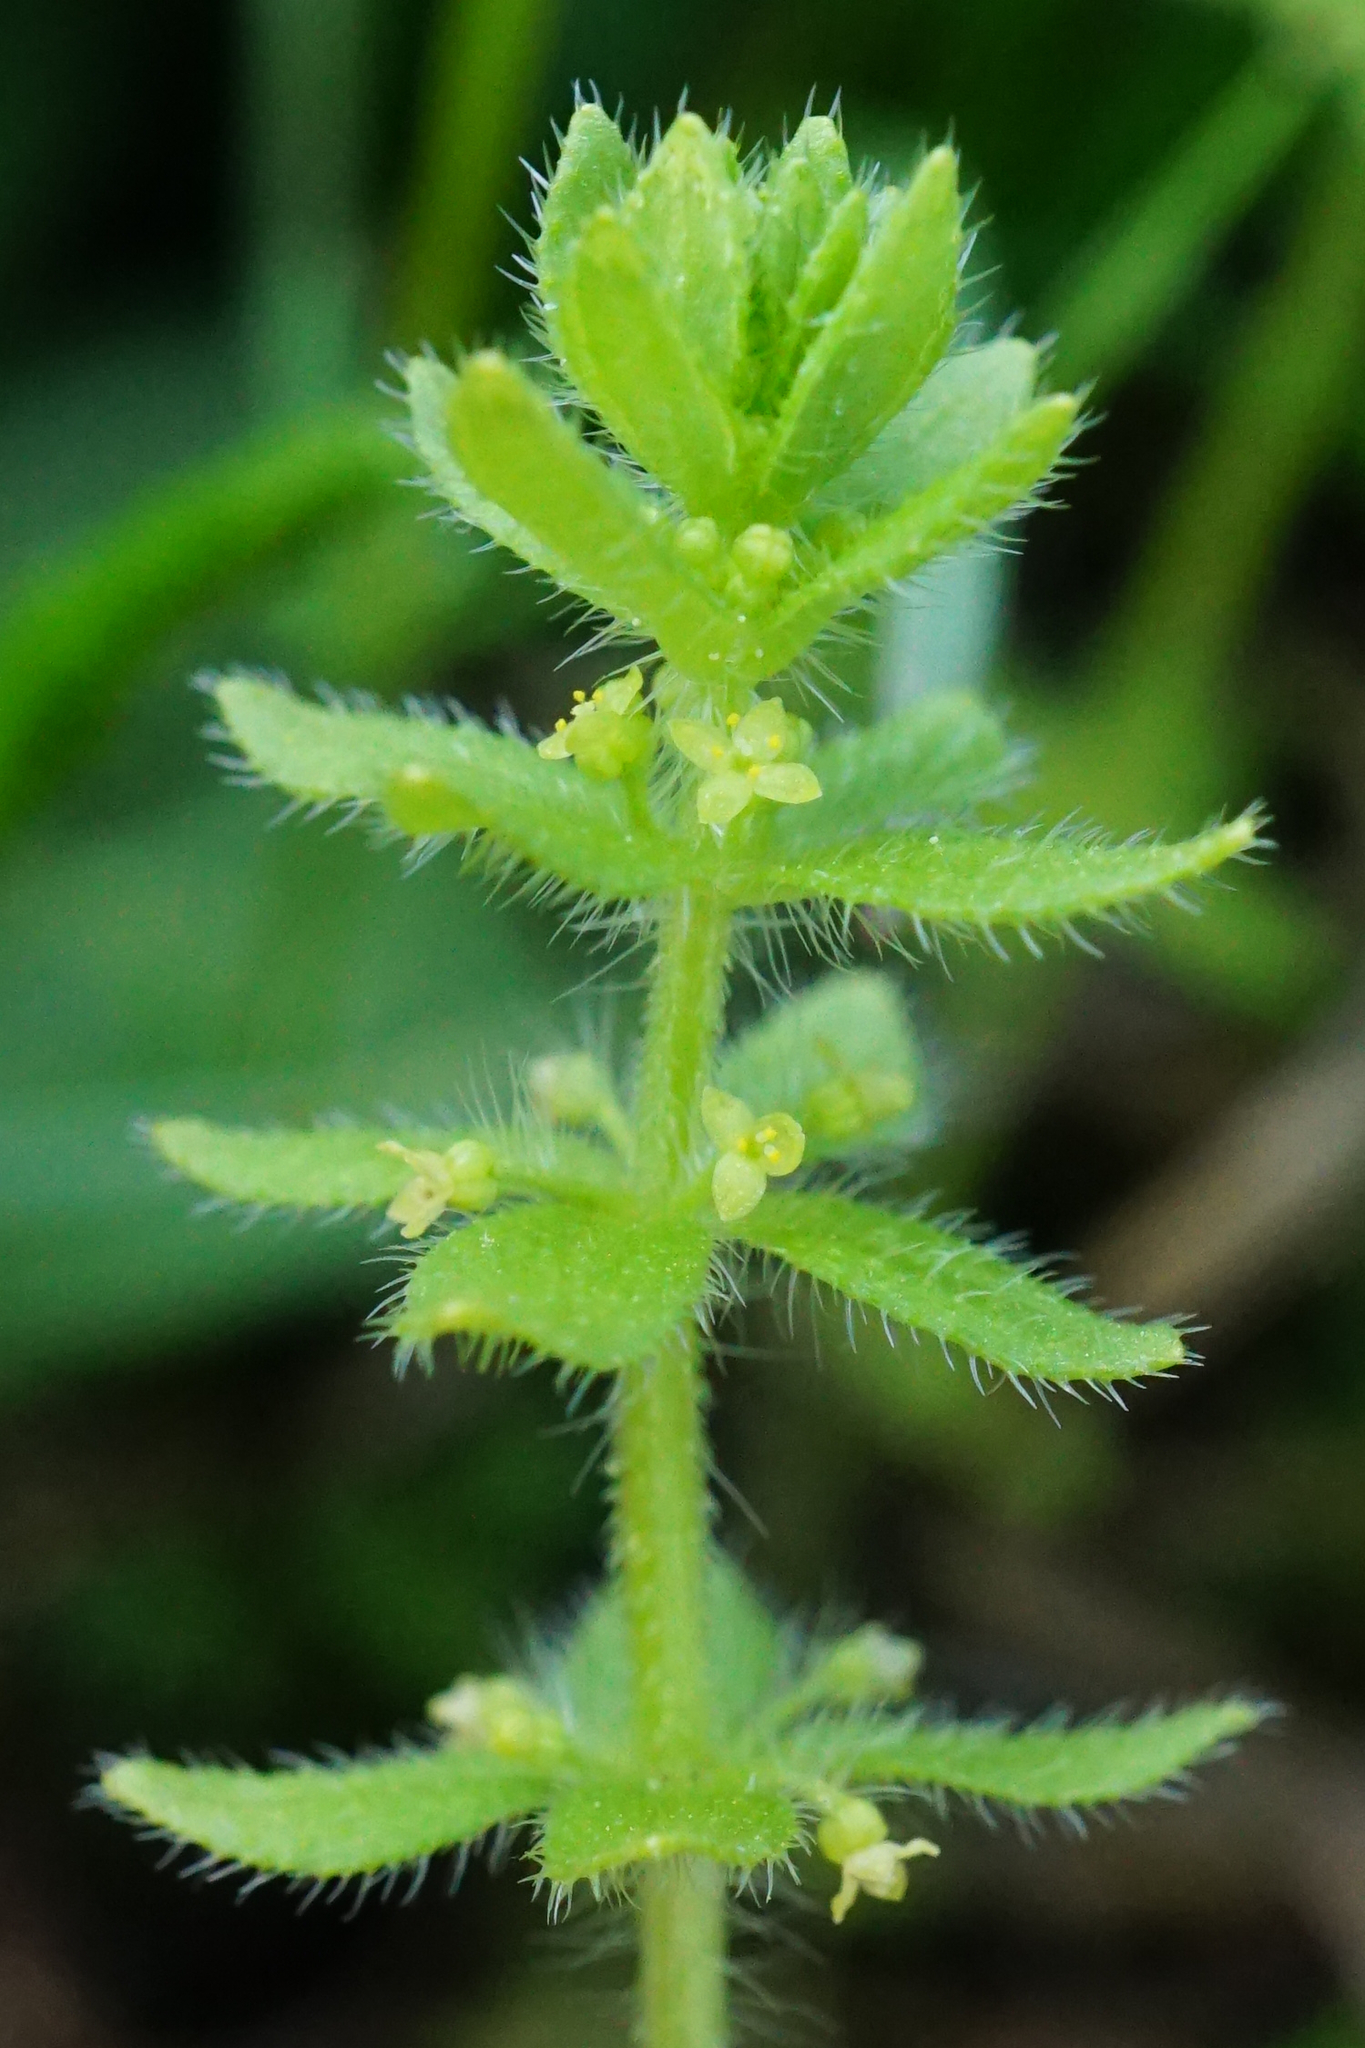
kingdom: Plantae
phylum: Tracheophyta
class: Magnoliopsida
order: Gentianales
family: Rubiaceae
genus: Cruciata
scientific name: Cruciata pedemontana
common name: Piedmont bedstraw
